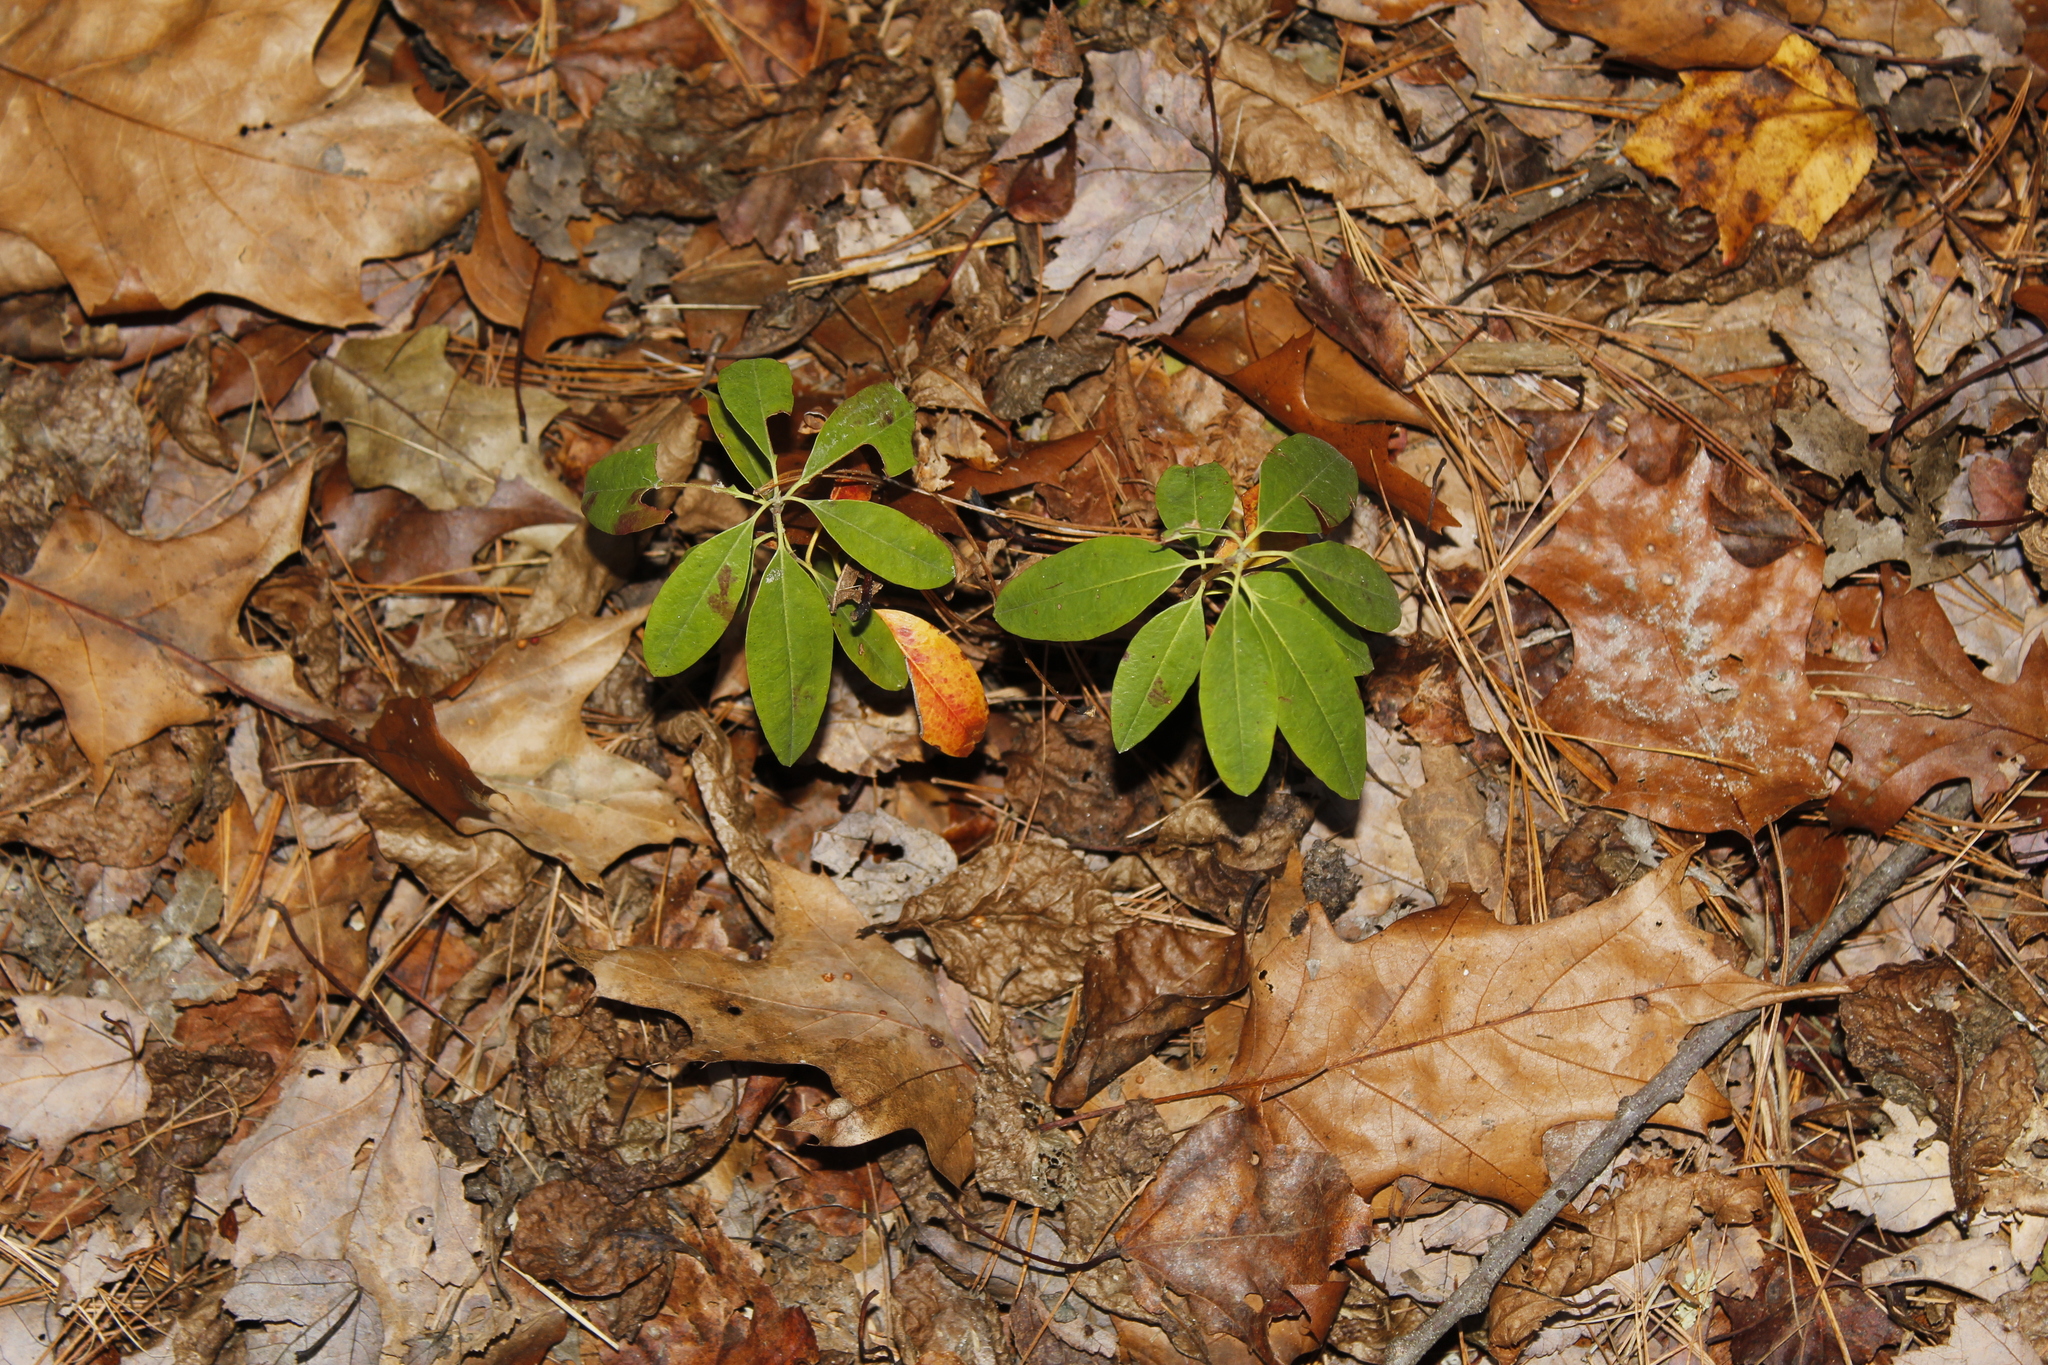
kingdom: Plantae
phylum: Tracheophyta
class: Magnoliopsida
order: Ericales
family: Ericaceae
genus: Kalmia
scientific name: Kalmia angustifolia
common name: Sheep-laurel
